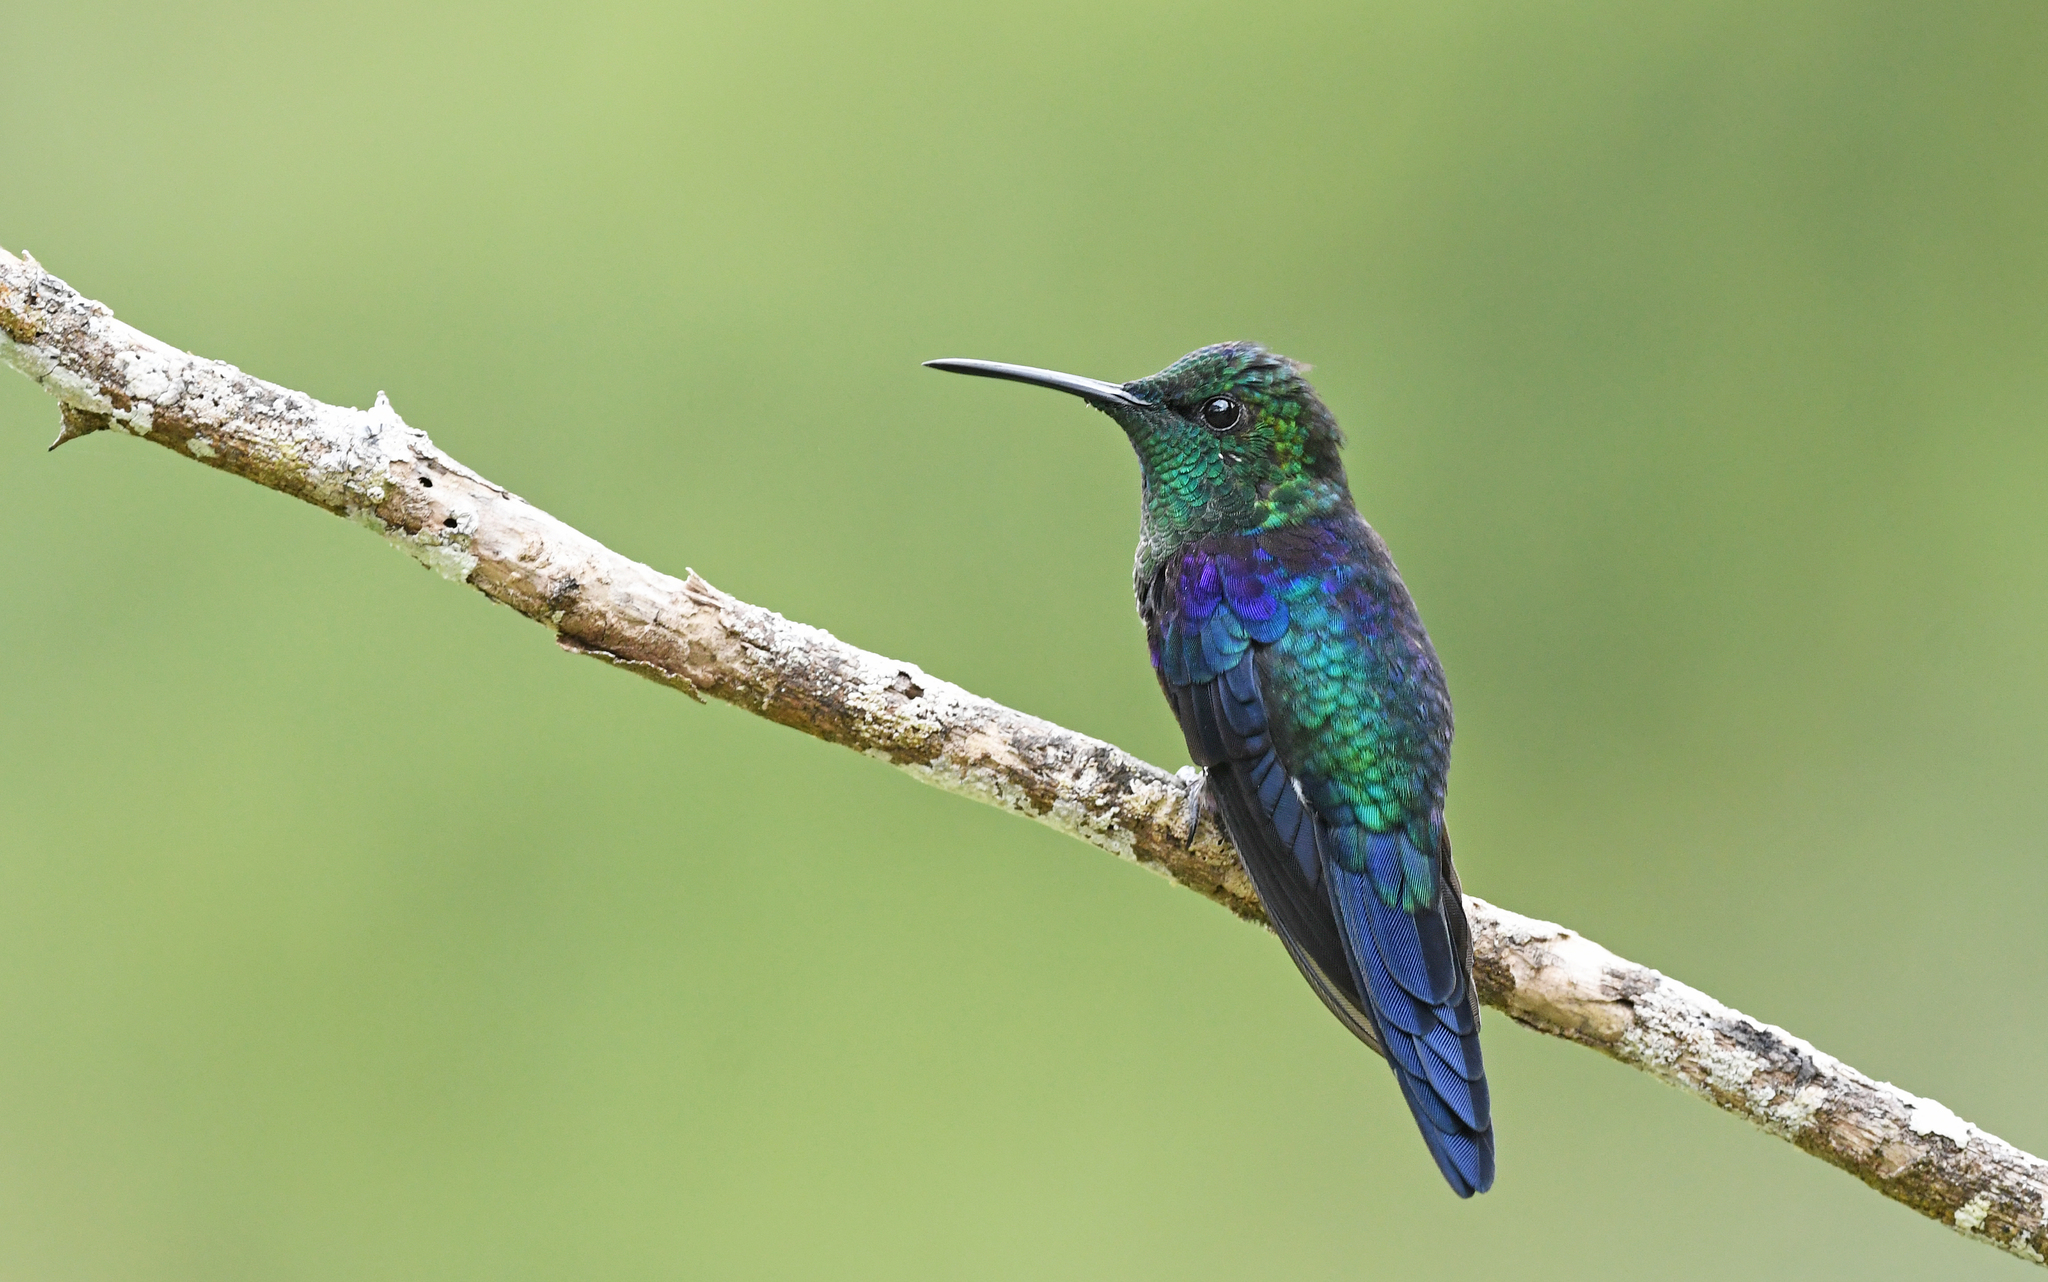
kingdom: Animalia
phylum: Chordata
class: Aves
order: Apodiformes
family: Trochilidae
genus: Thalurania
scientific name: Thalurania colombica
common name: Crowned woodnymph
